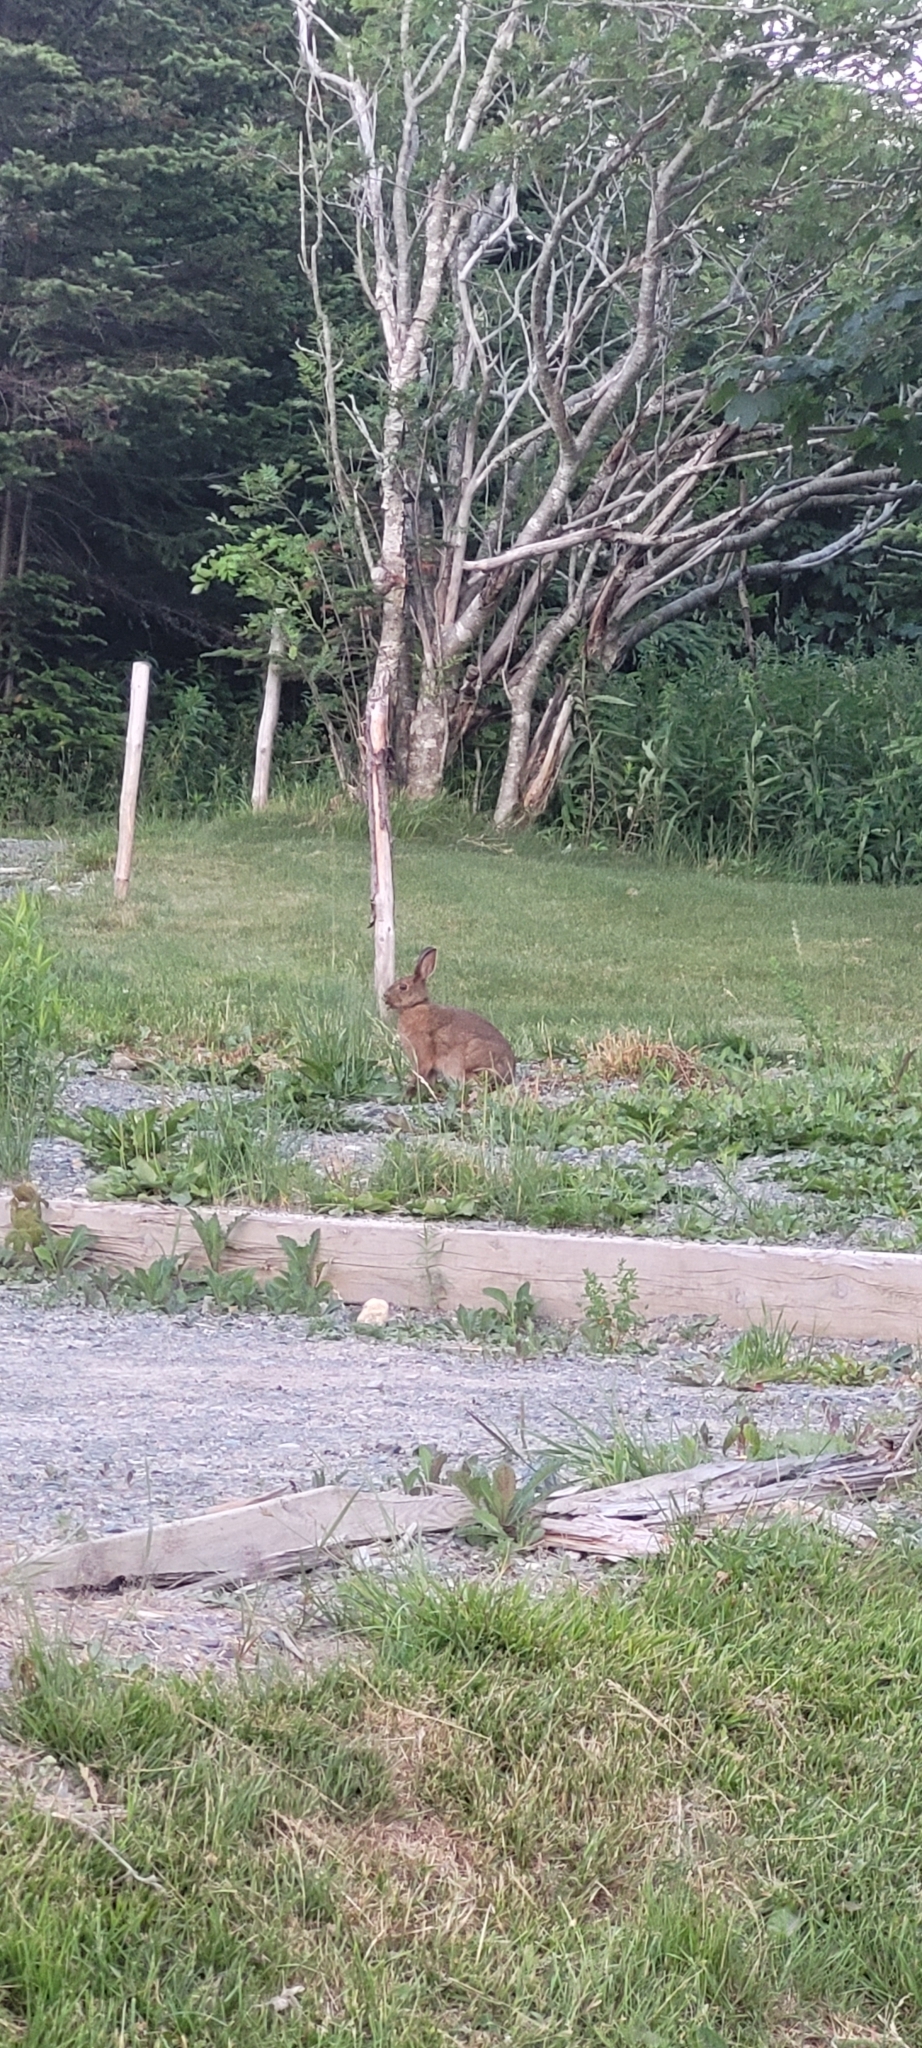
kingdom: Animalia
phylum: Chordata
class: Mammalia
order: Lagomorpha
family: Leporidae
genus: Lepus
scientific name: Lepus americanus
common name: Snowshoe hare
